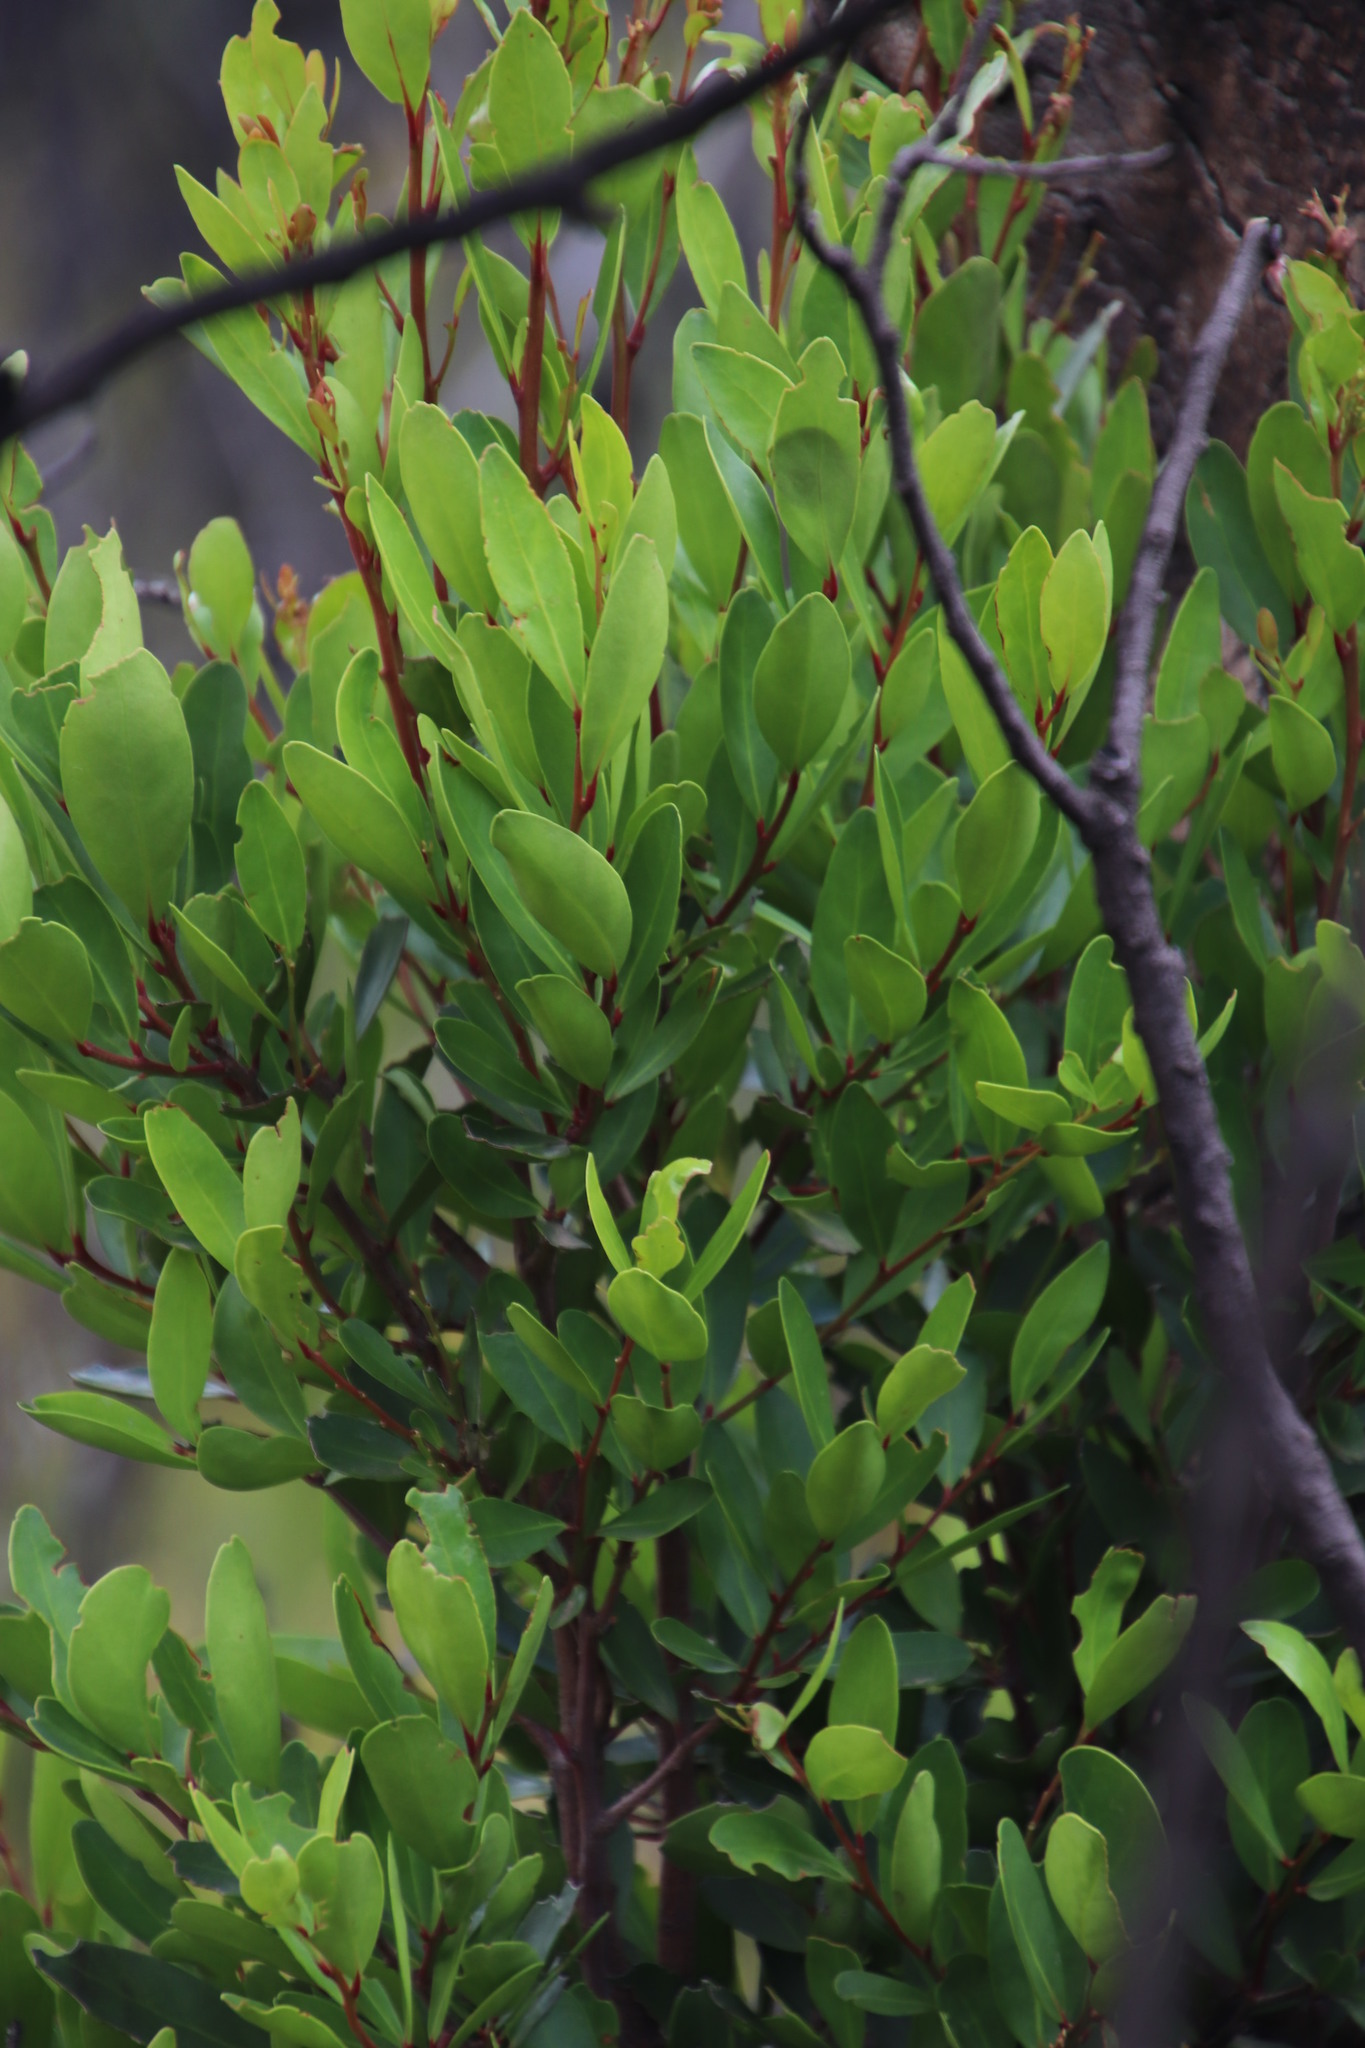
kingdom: Plantae
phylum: Tracheophyta
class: Magnoliopsida
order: Celastrales
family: Celastraceae
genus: Gymnosporia
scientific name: Gymnosporia laurina
